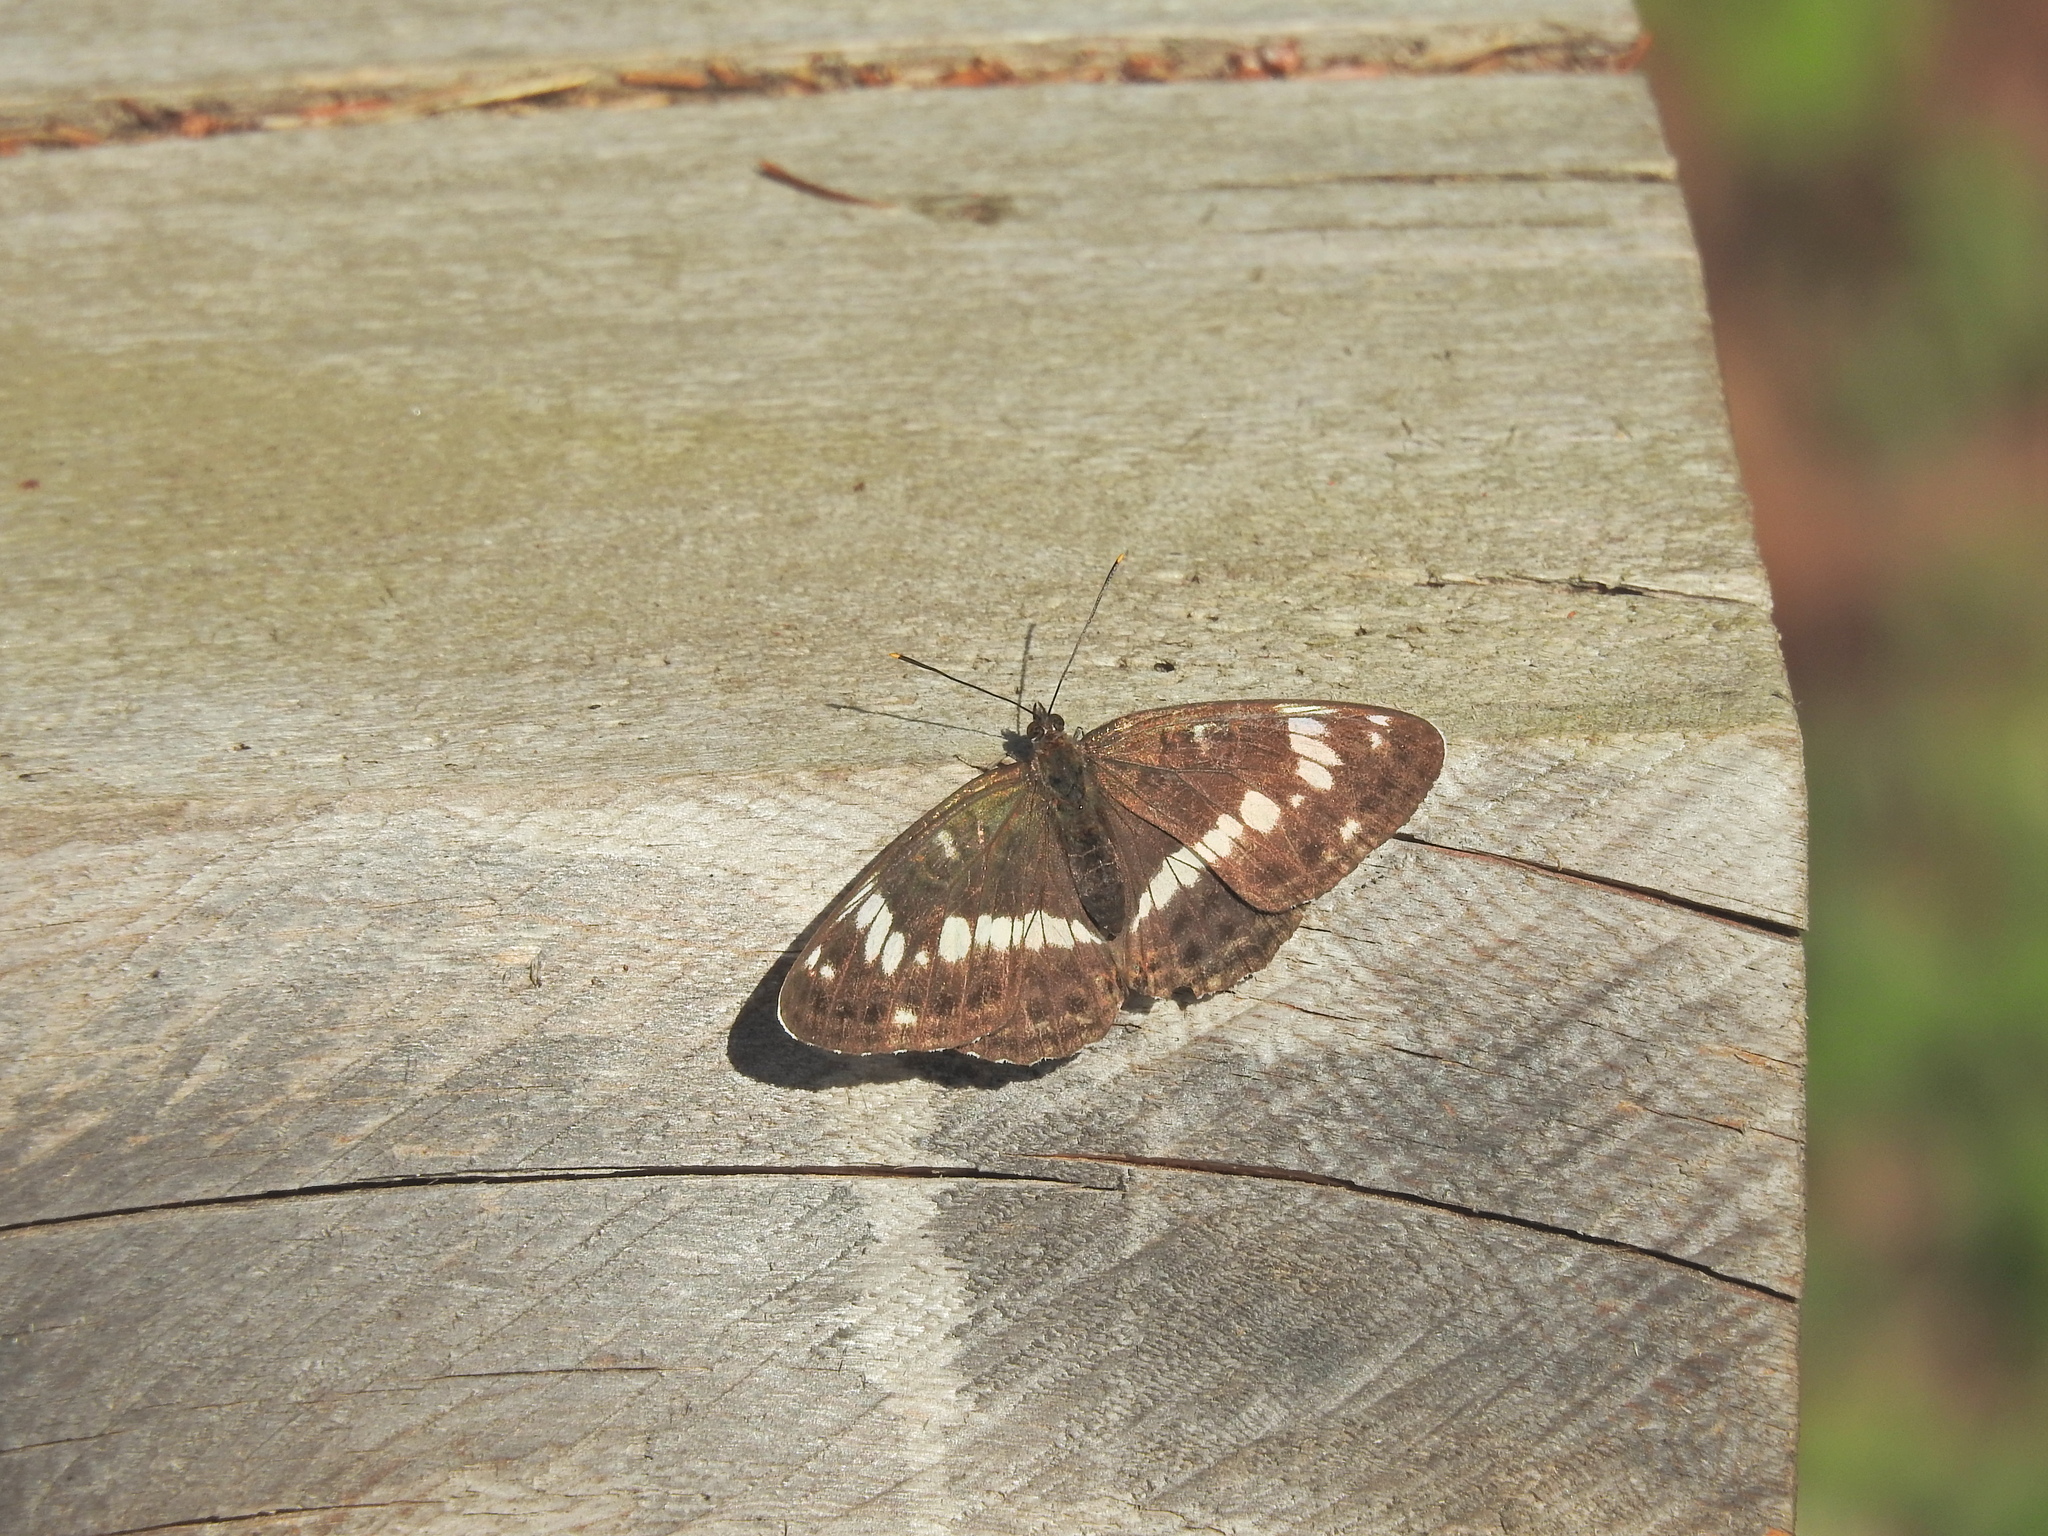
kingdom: Animalia
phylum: Arthropoda
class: Insecta
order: Lepidoptera
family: Nymphalidae
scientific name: Nymphalidae
